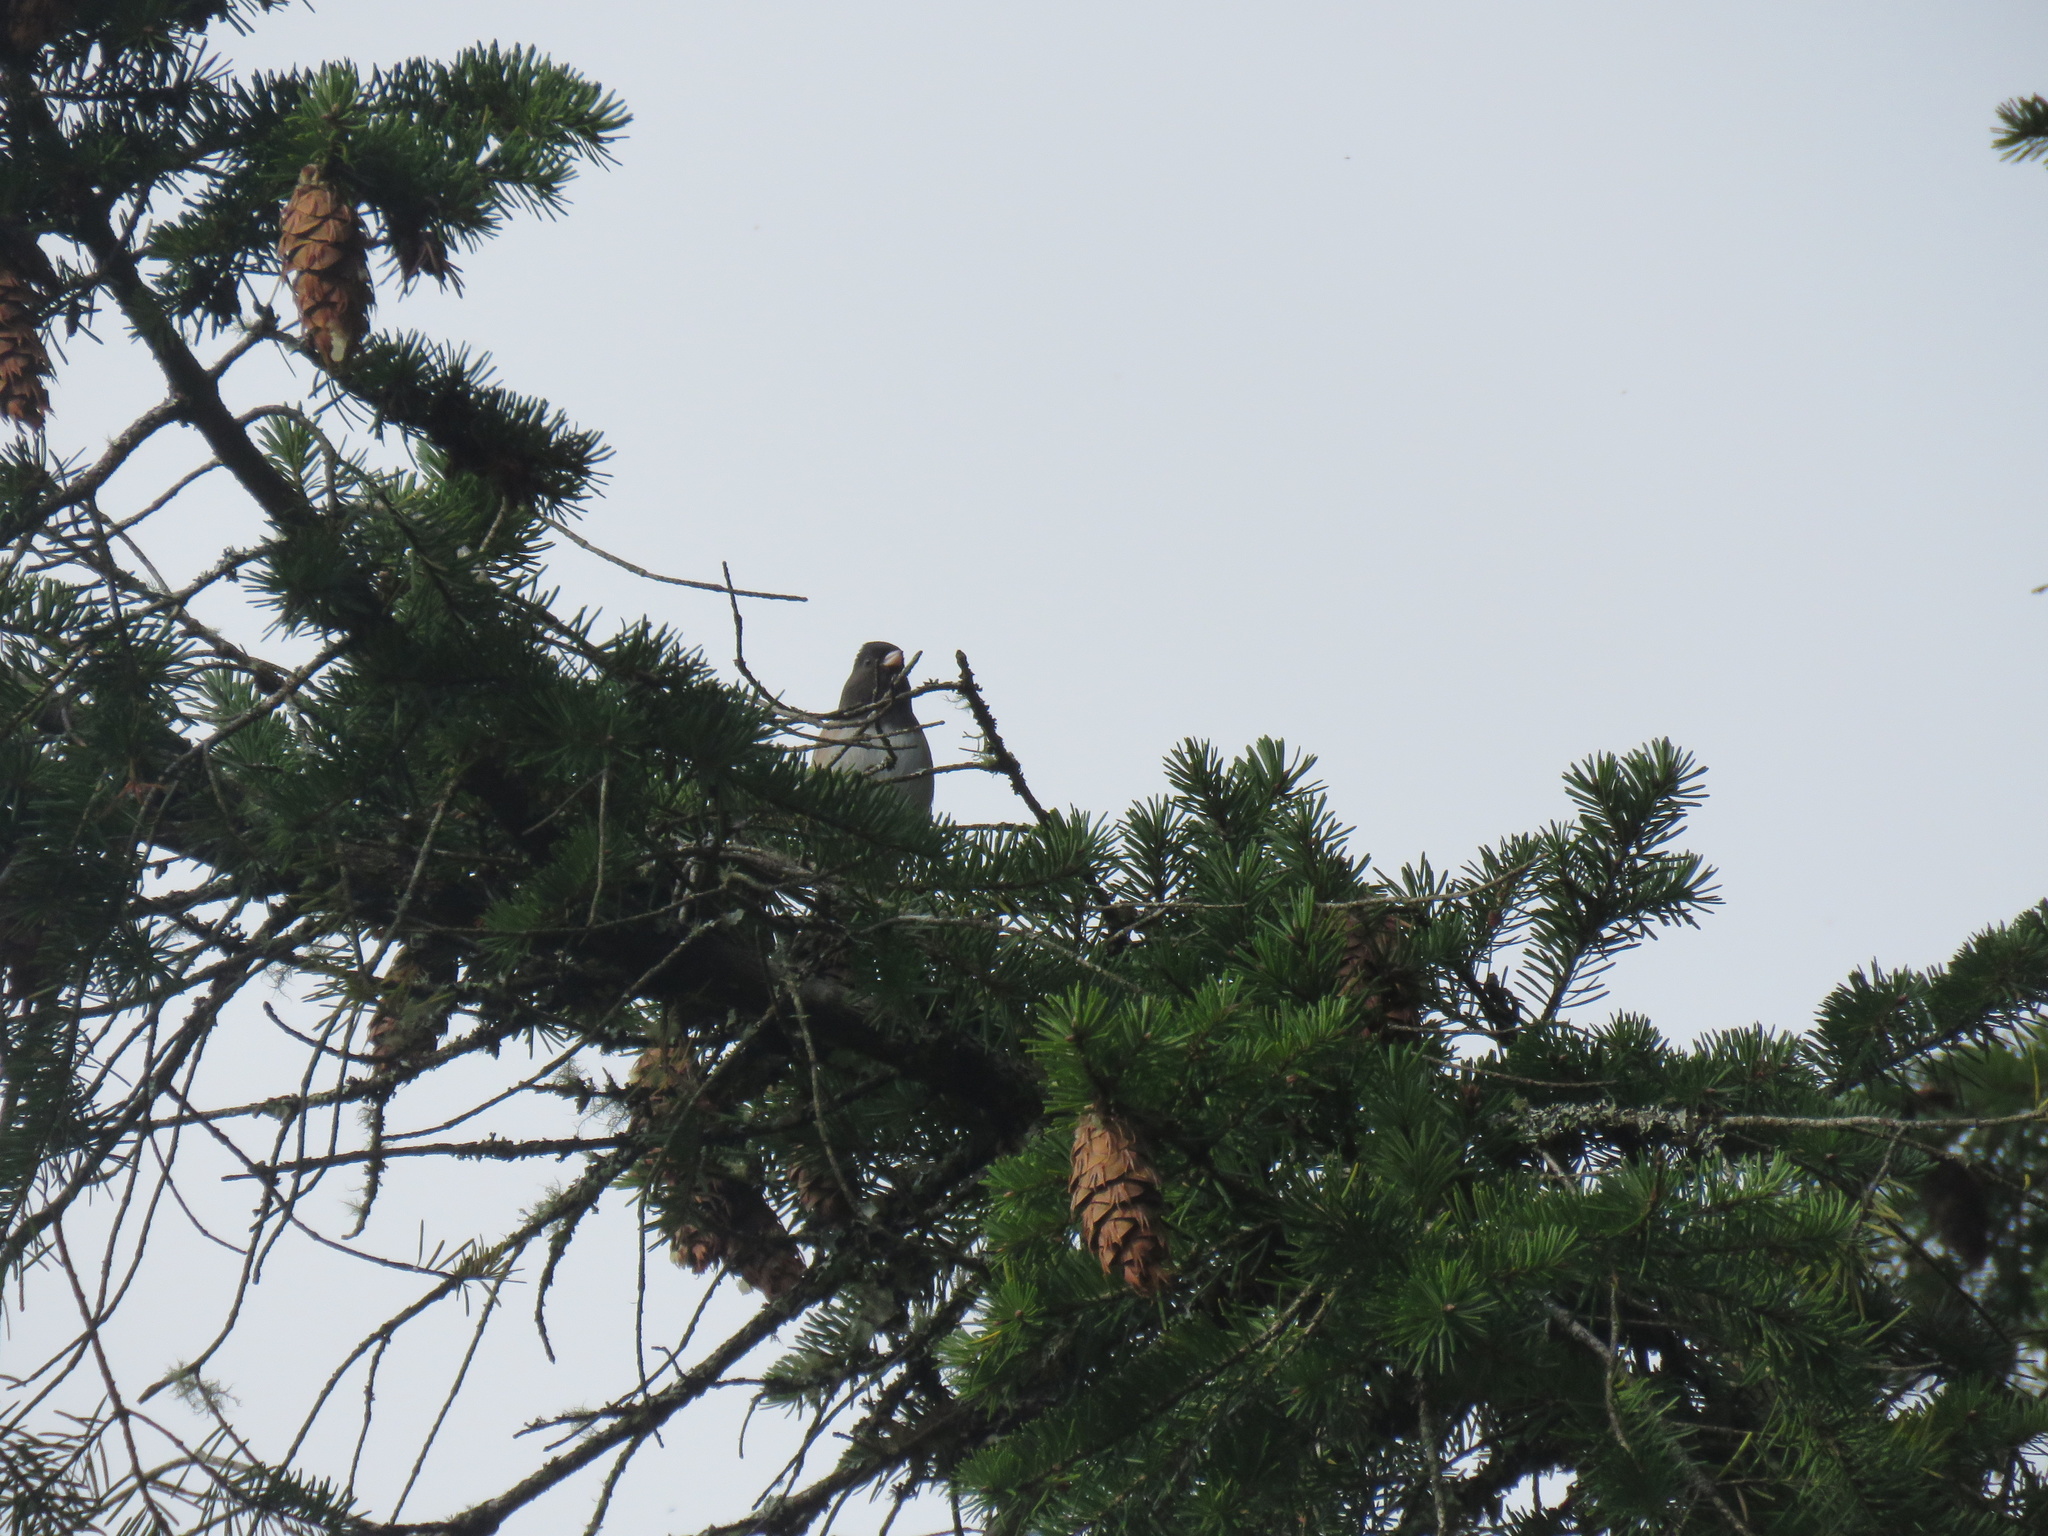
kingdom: Animalia
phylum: Chordata
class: Aves
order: Passeriformes
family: Passerellidae
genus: Junco
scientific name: Junco hyemalis
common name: Dark-eyed junco
